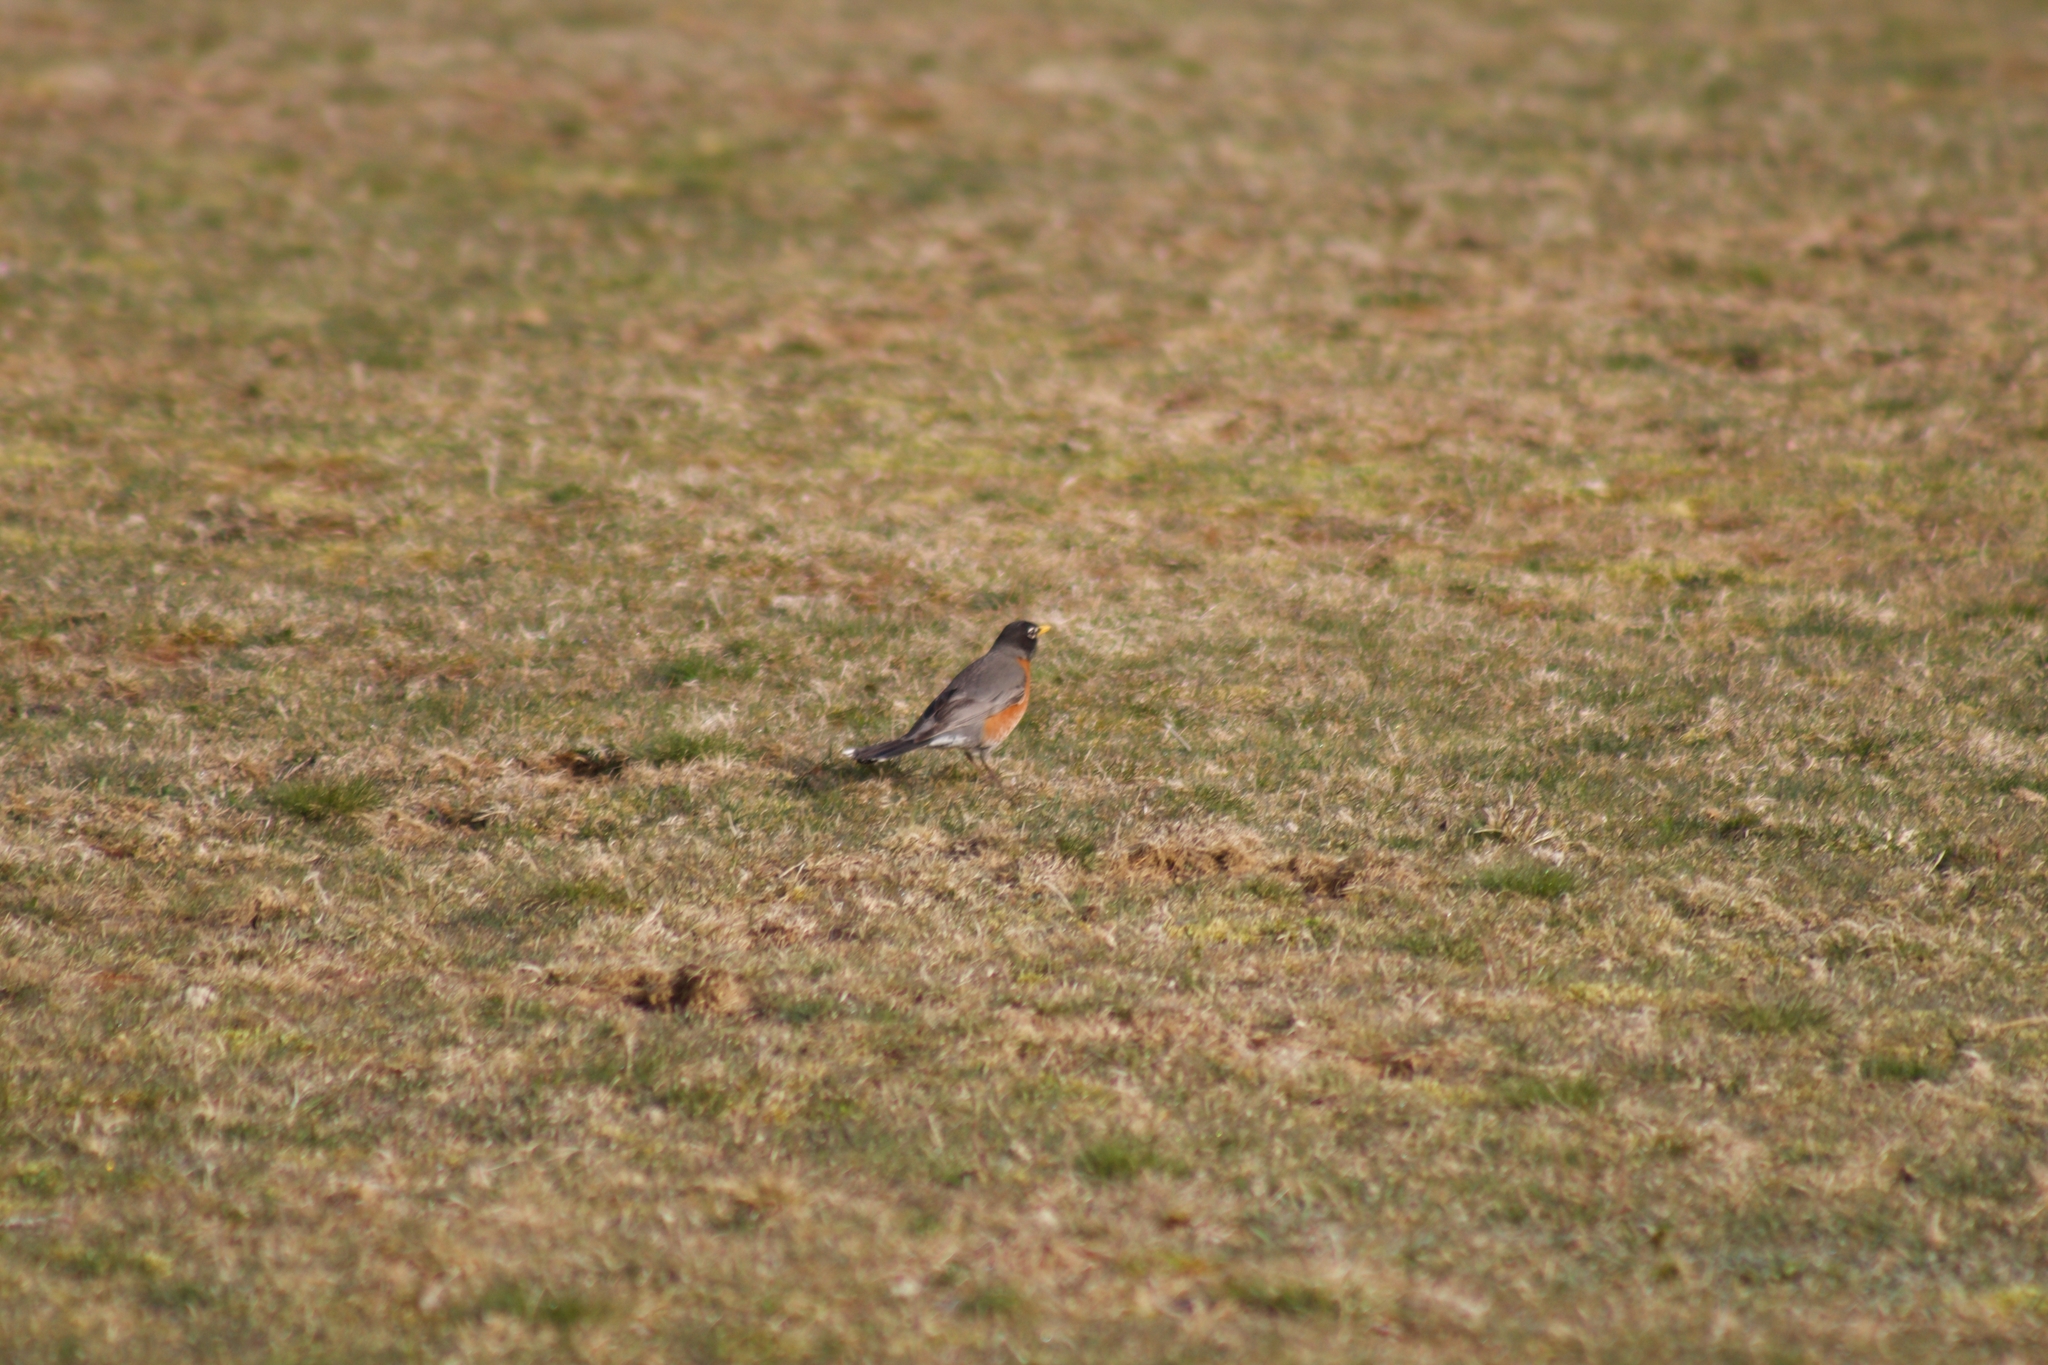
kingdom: Animalia
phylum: Chordata
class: Aves
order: Passeriformes
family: Turdidae
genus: Turdus
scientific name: Turdus migratorius
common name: American robin
